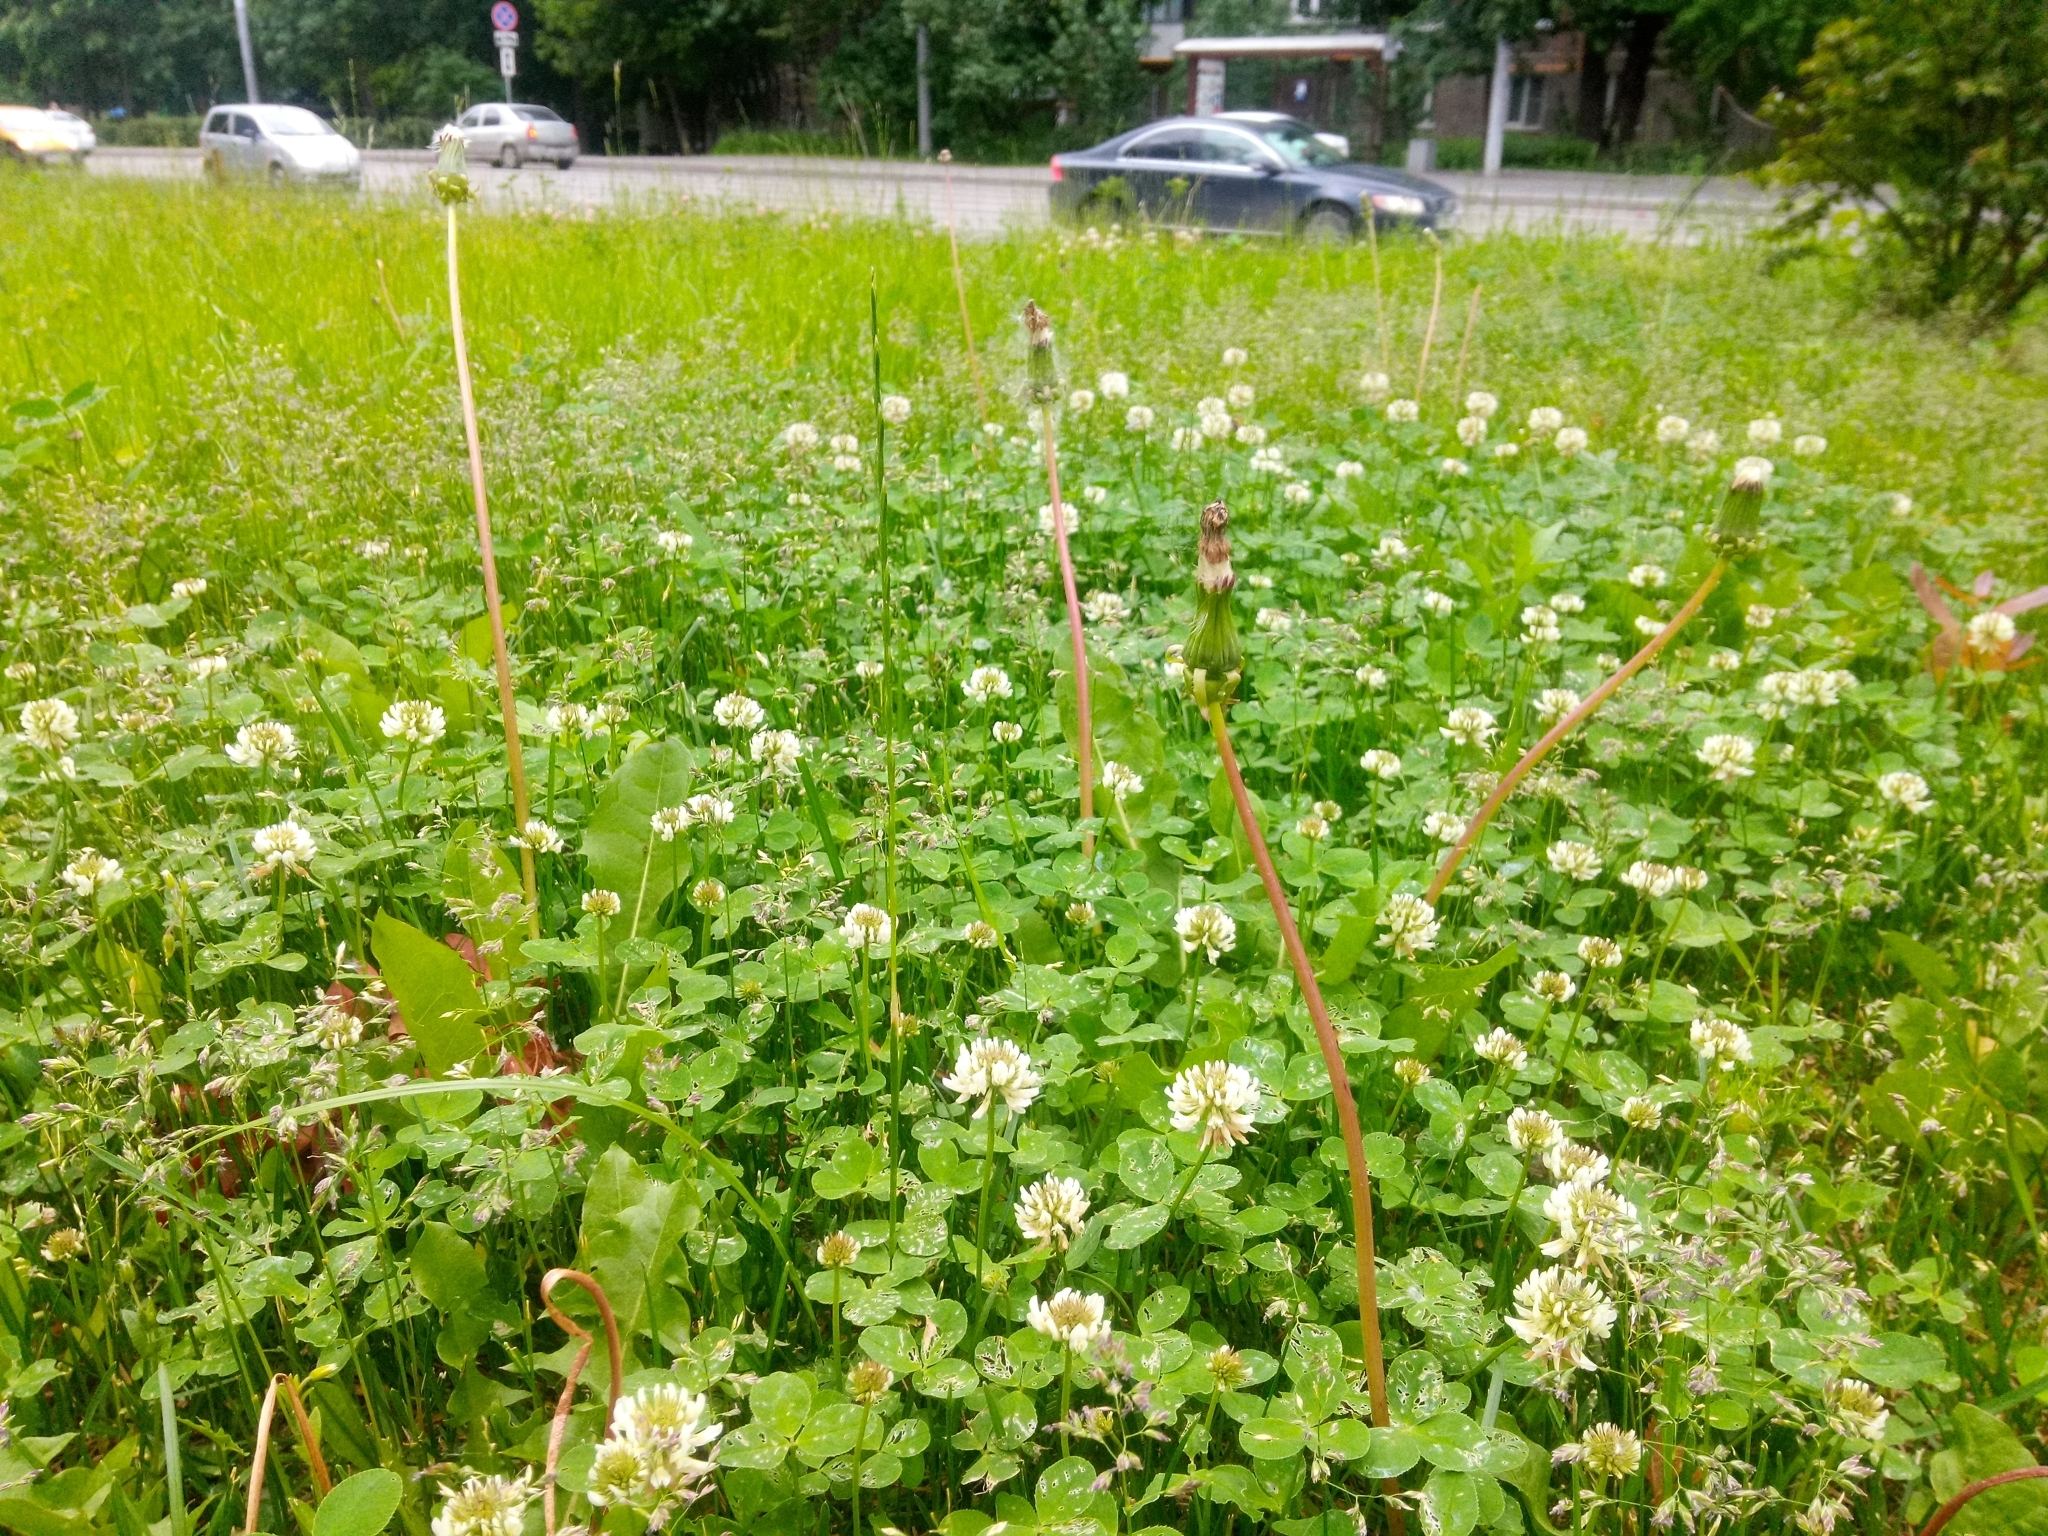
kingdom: Plantae
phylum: Tracheophyta
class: Magnoliopsida
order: Fabales
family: Fabaceae
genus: Trifolium
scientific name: Trifolium repens
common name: White clover
